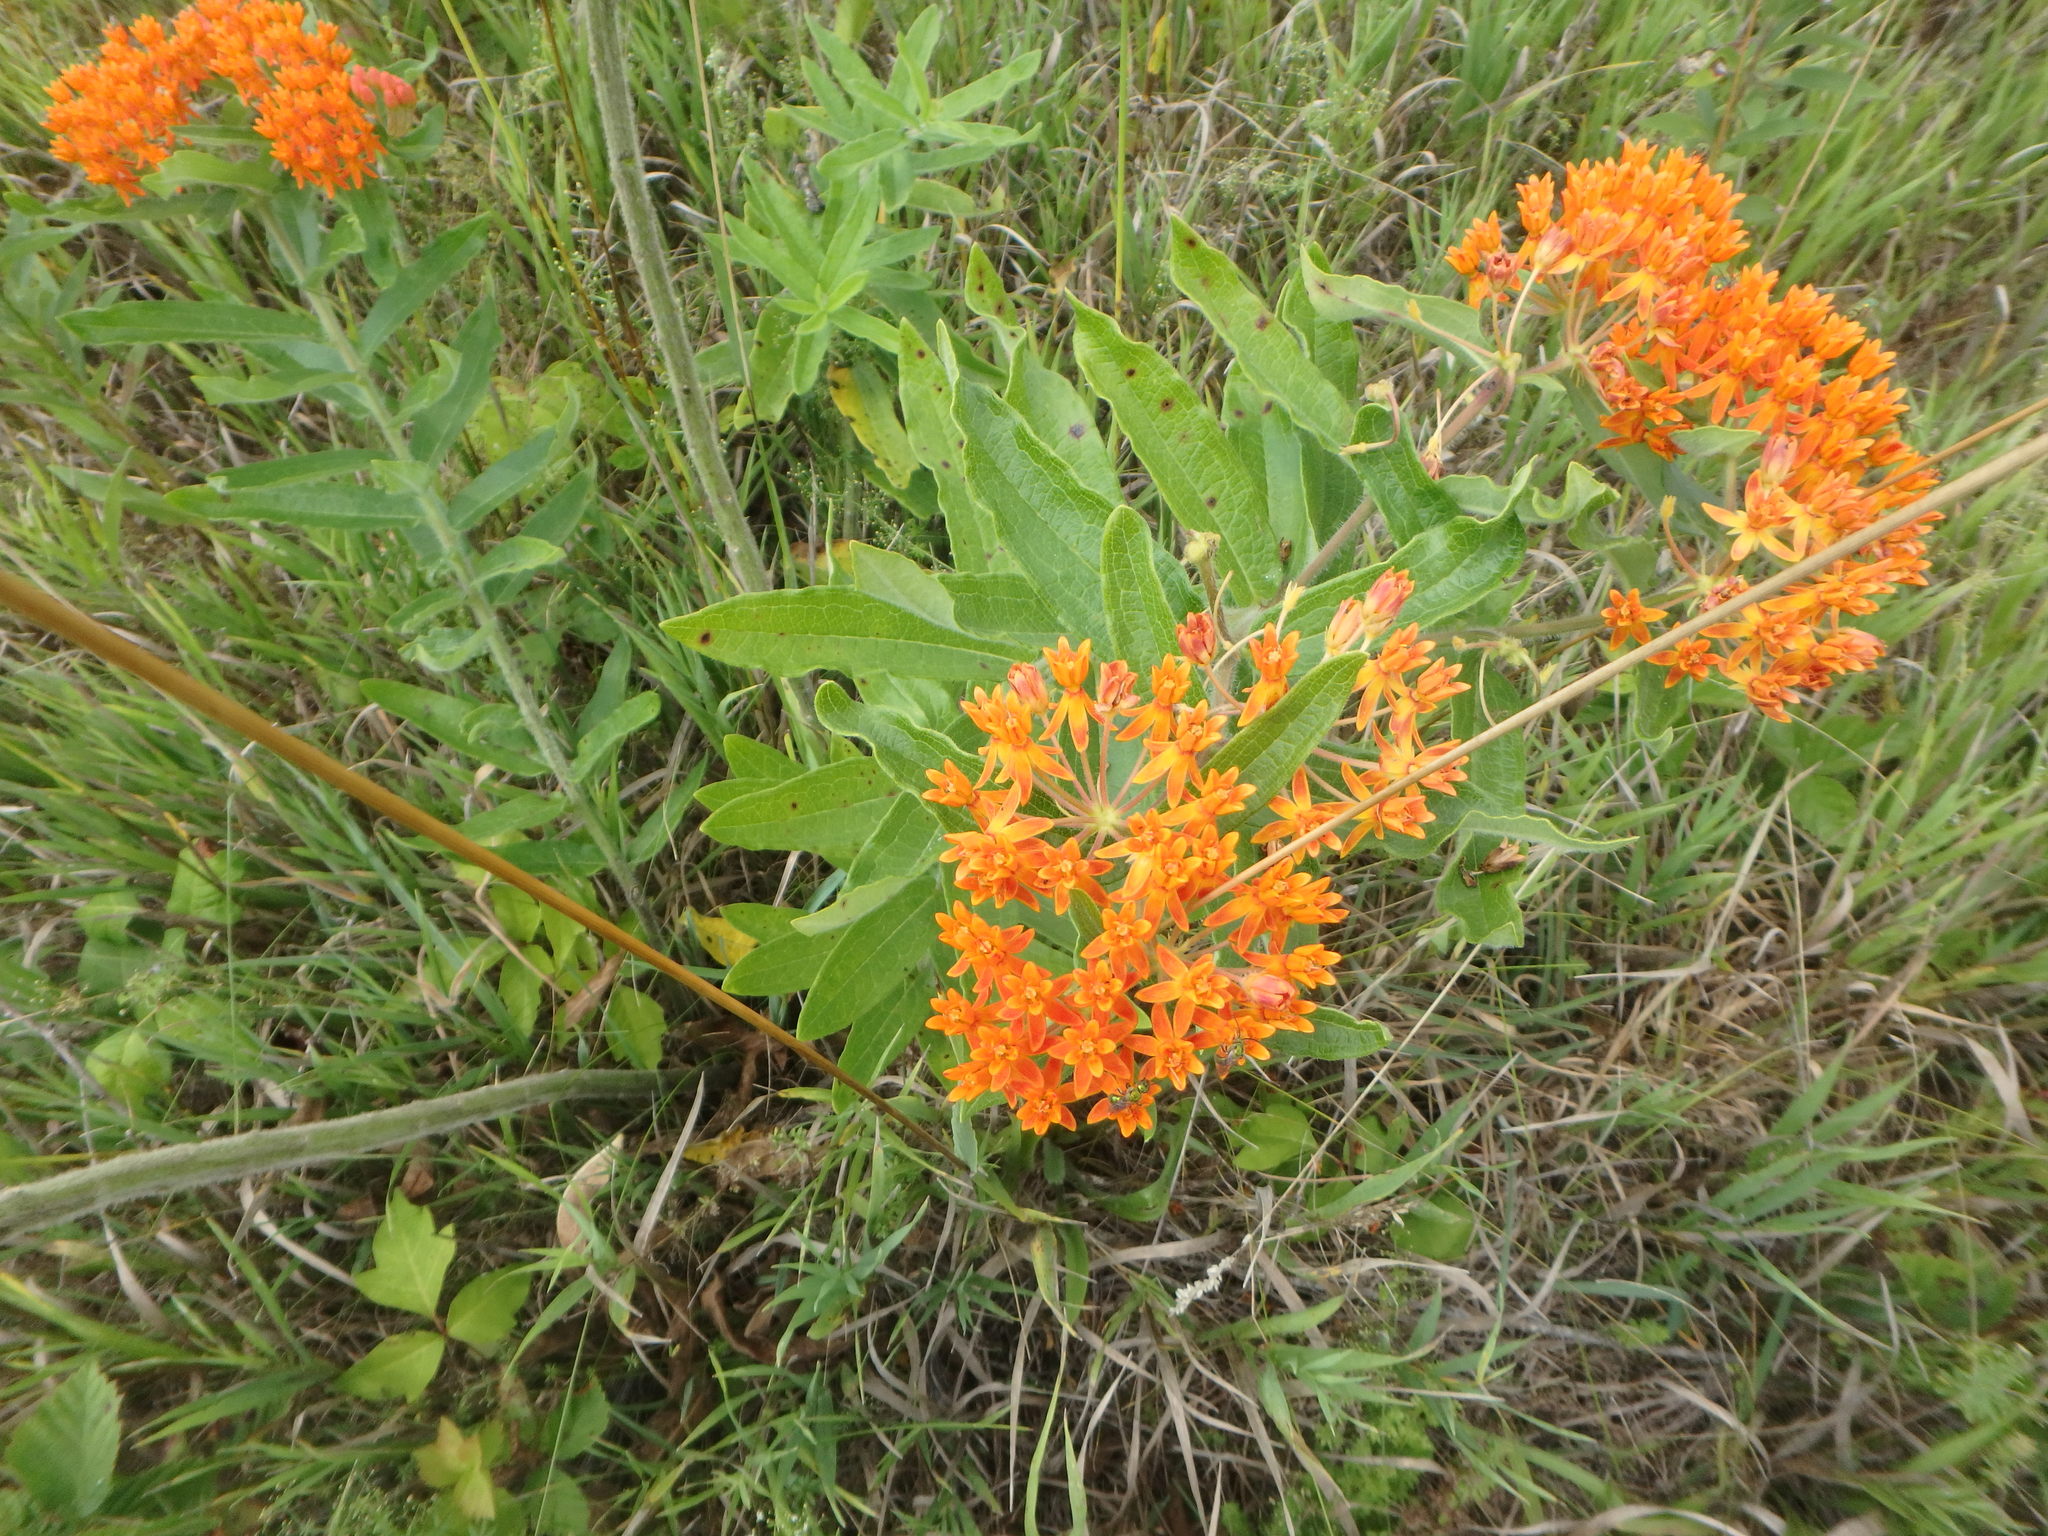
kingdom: Plantae
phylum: Tracheophyta
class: Magnoliopsida
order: Gentianales
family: Apocynaceae
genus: Asclepias
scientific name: Asclepias tuberosa
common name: Butterfly milkweed
